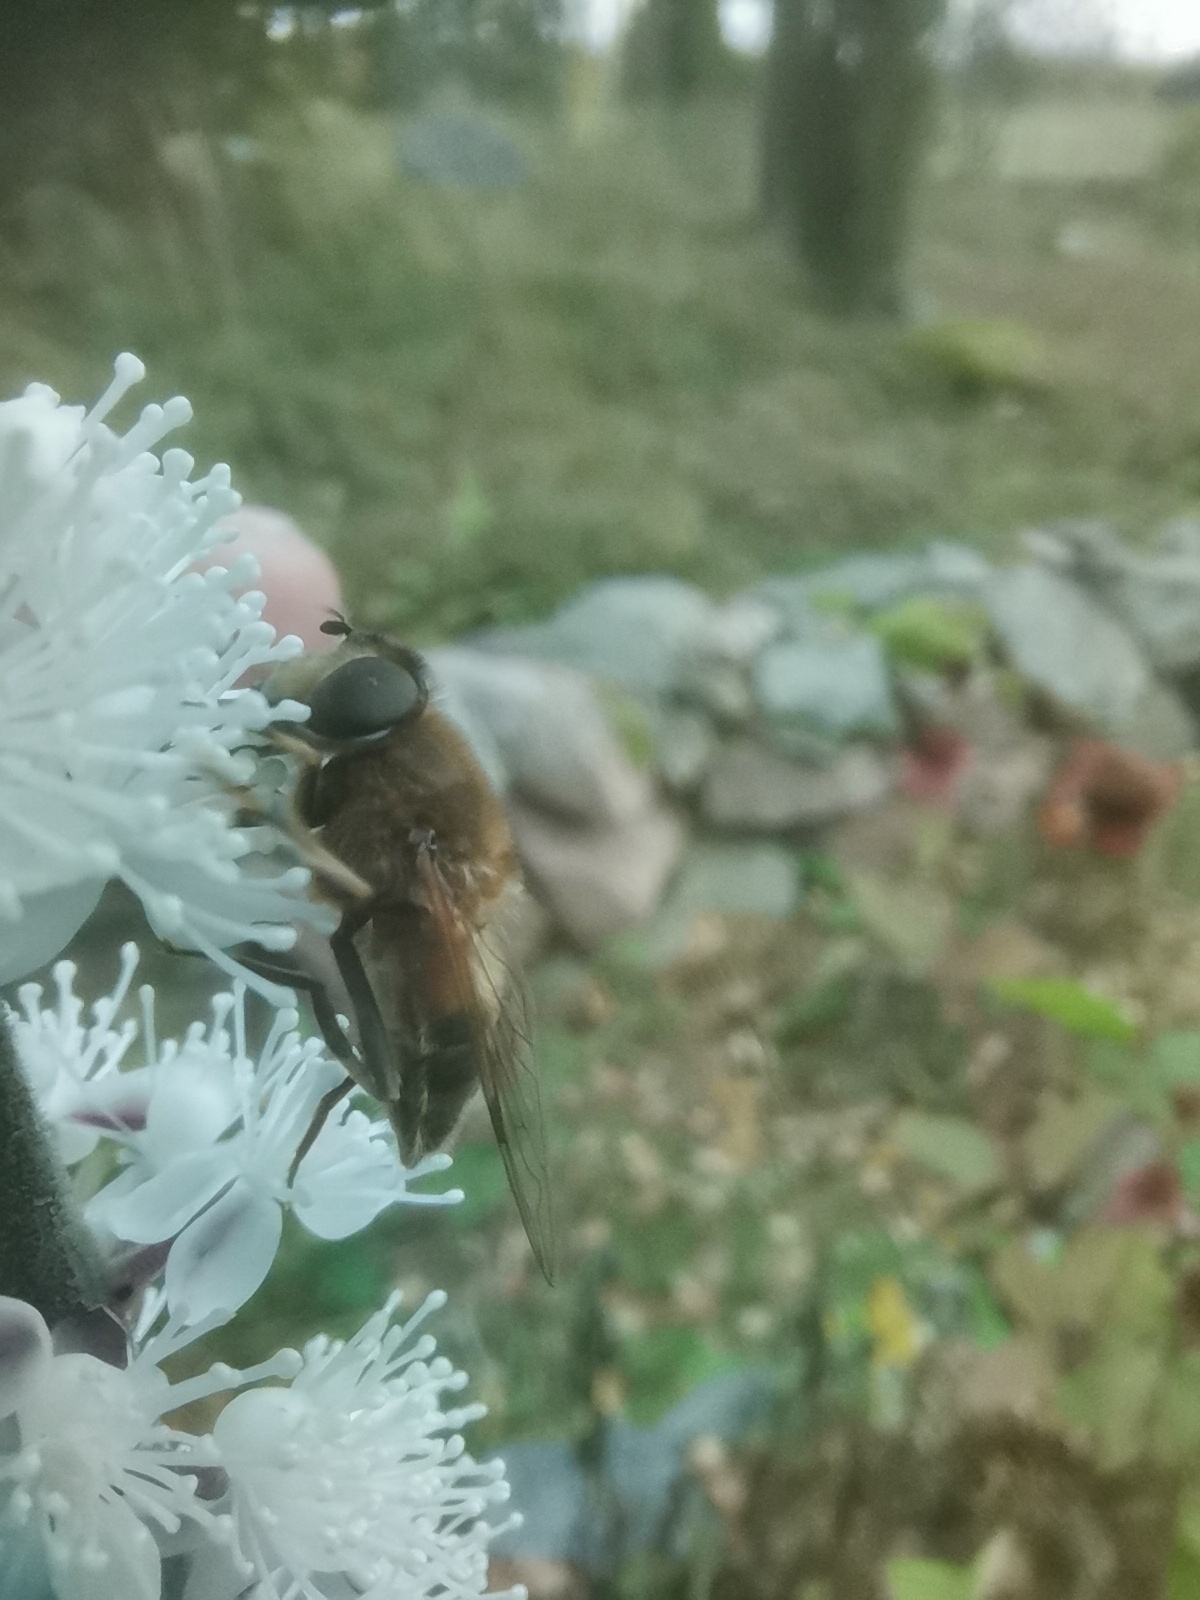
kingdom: Animalia
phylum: Arthropoda
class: Insecta
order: Diptera
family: Syrphidae
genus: Eristalis
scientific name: Eristalis pertinax
